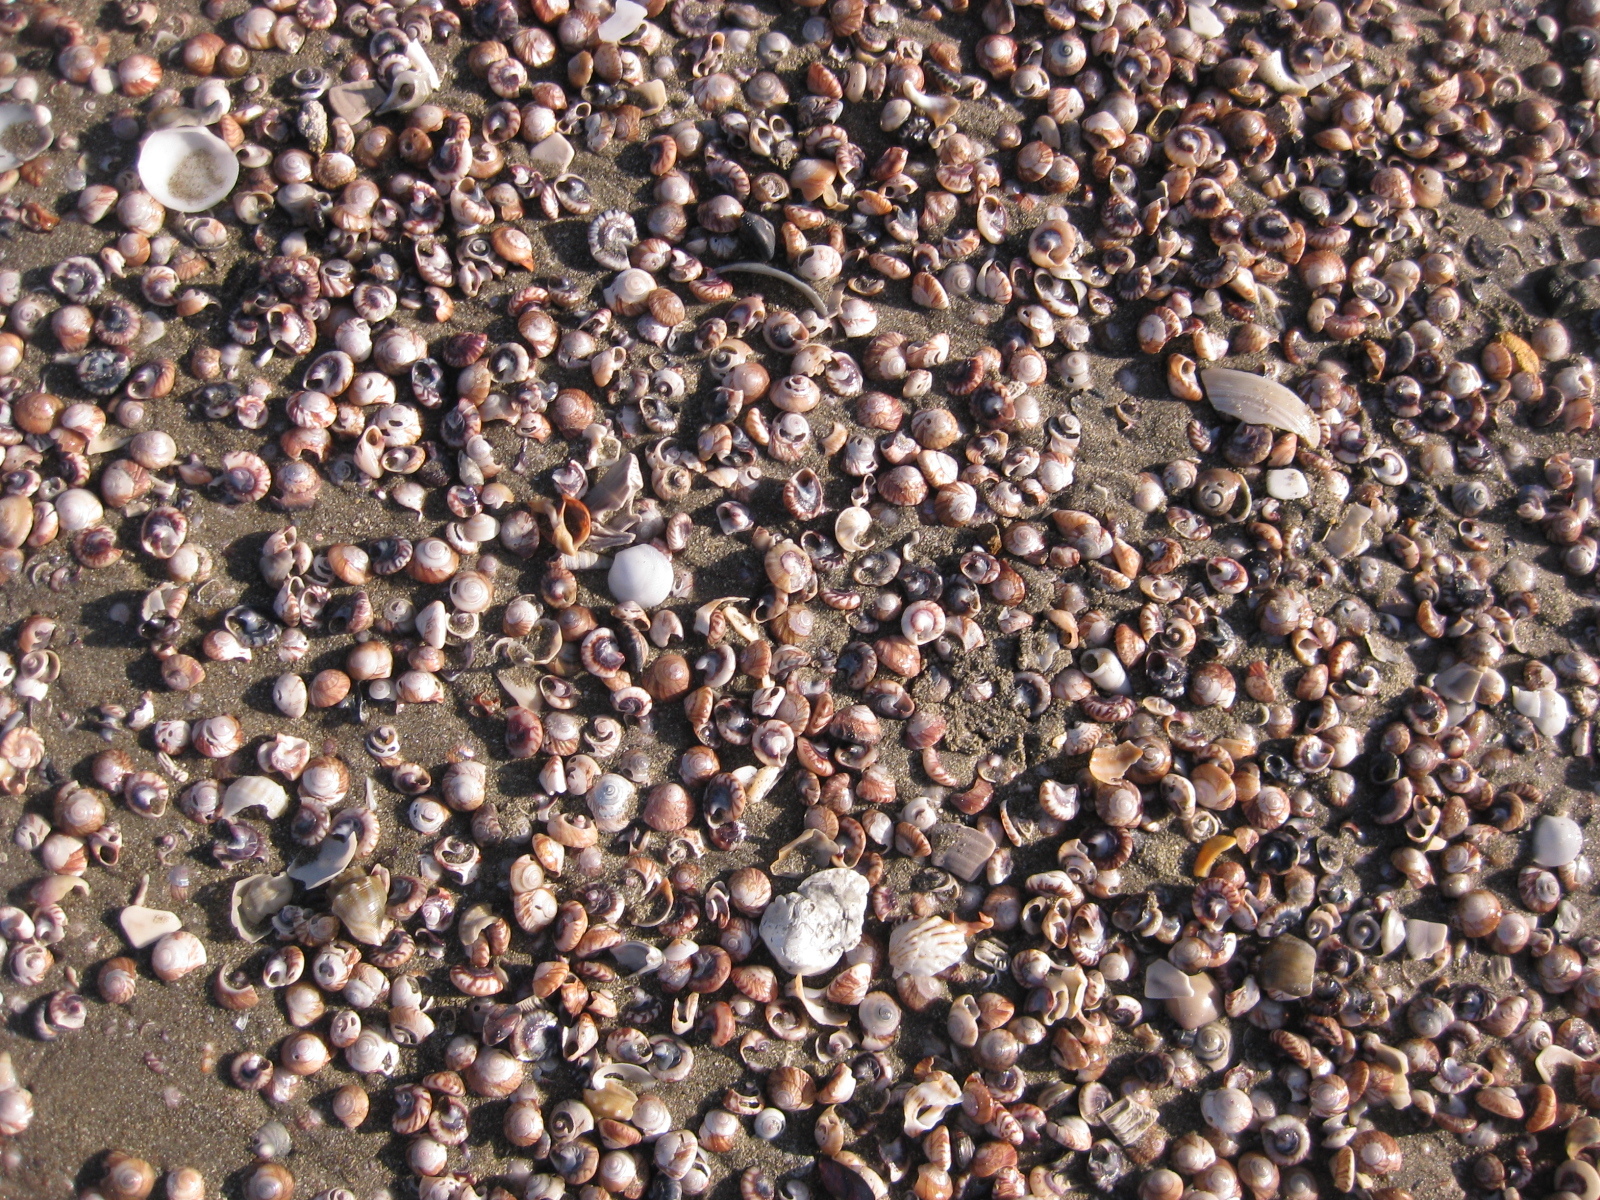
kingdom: Animalia
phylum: Mollusca
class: Gastropoda
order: Trochida
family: Trochidae
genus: Zethalia
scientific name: Zethalia zelandica
